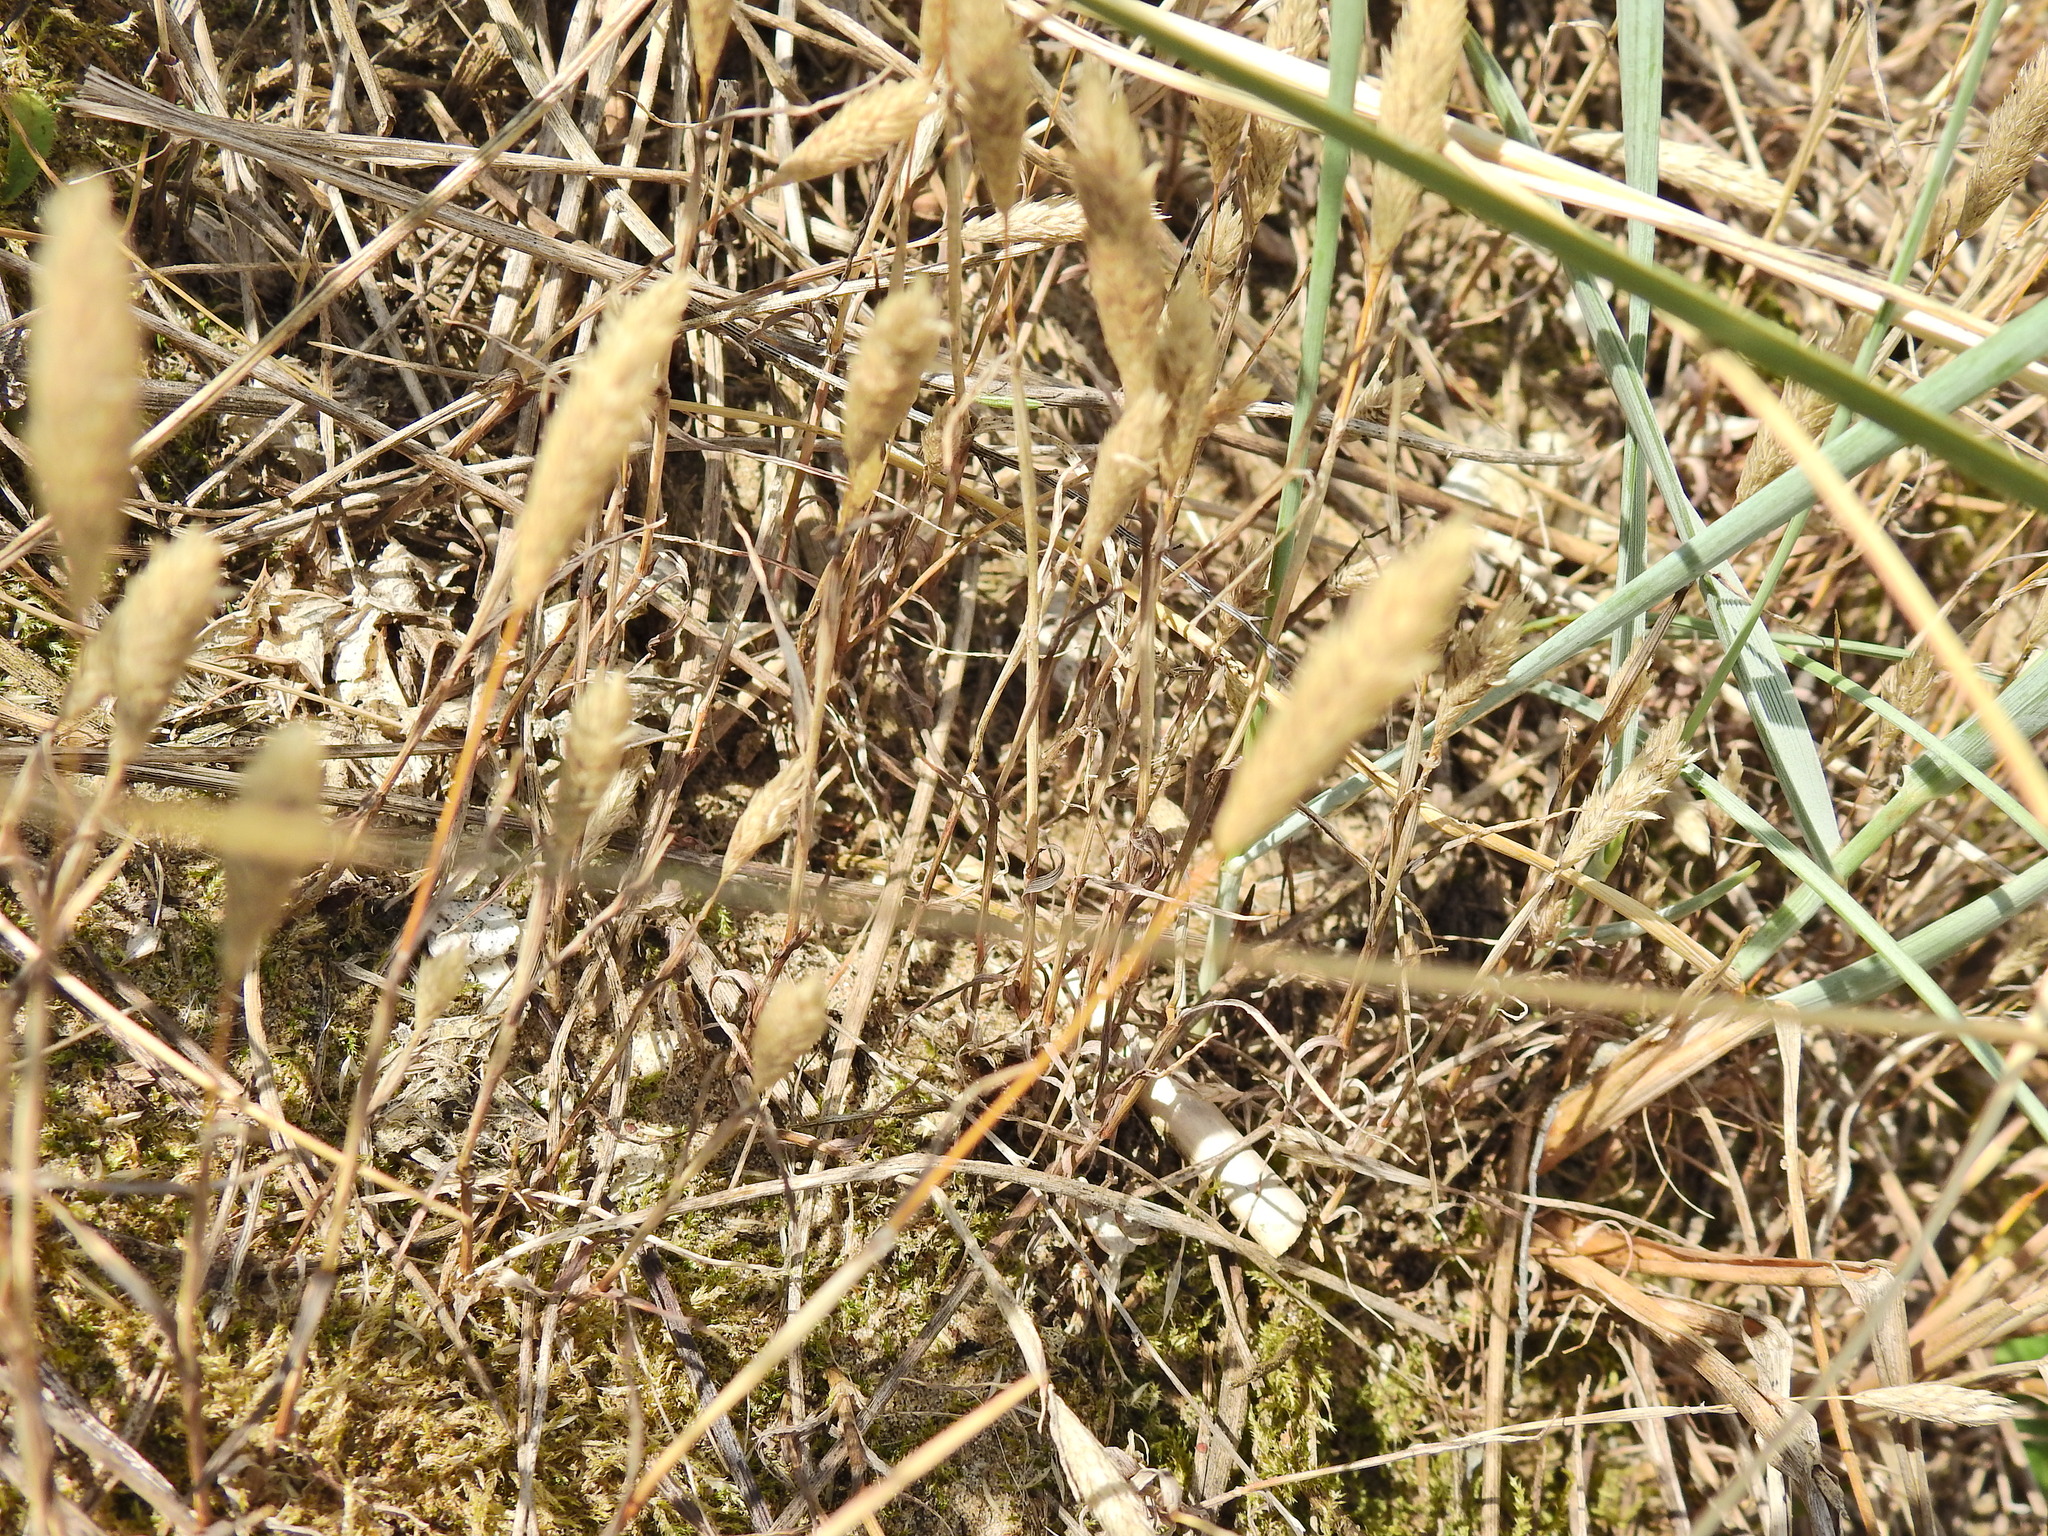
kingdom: Plantae
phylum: Tracheophyta
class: Liliopsida
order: Poales
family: Poaceae
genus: Phleum
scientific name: Phleum arenarium
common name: Sand cat's-tail
